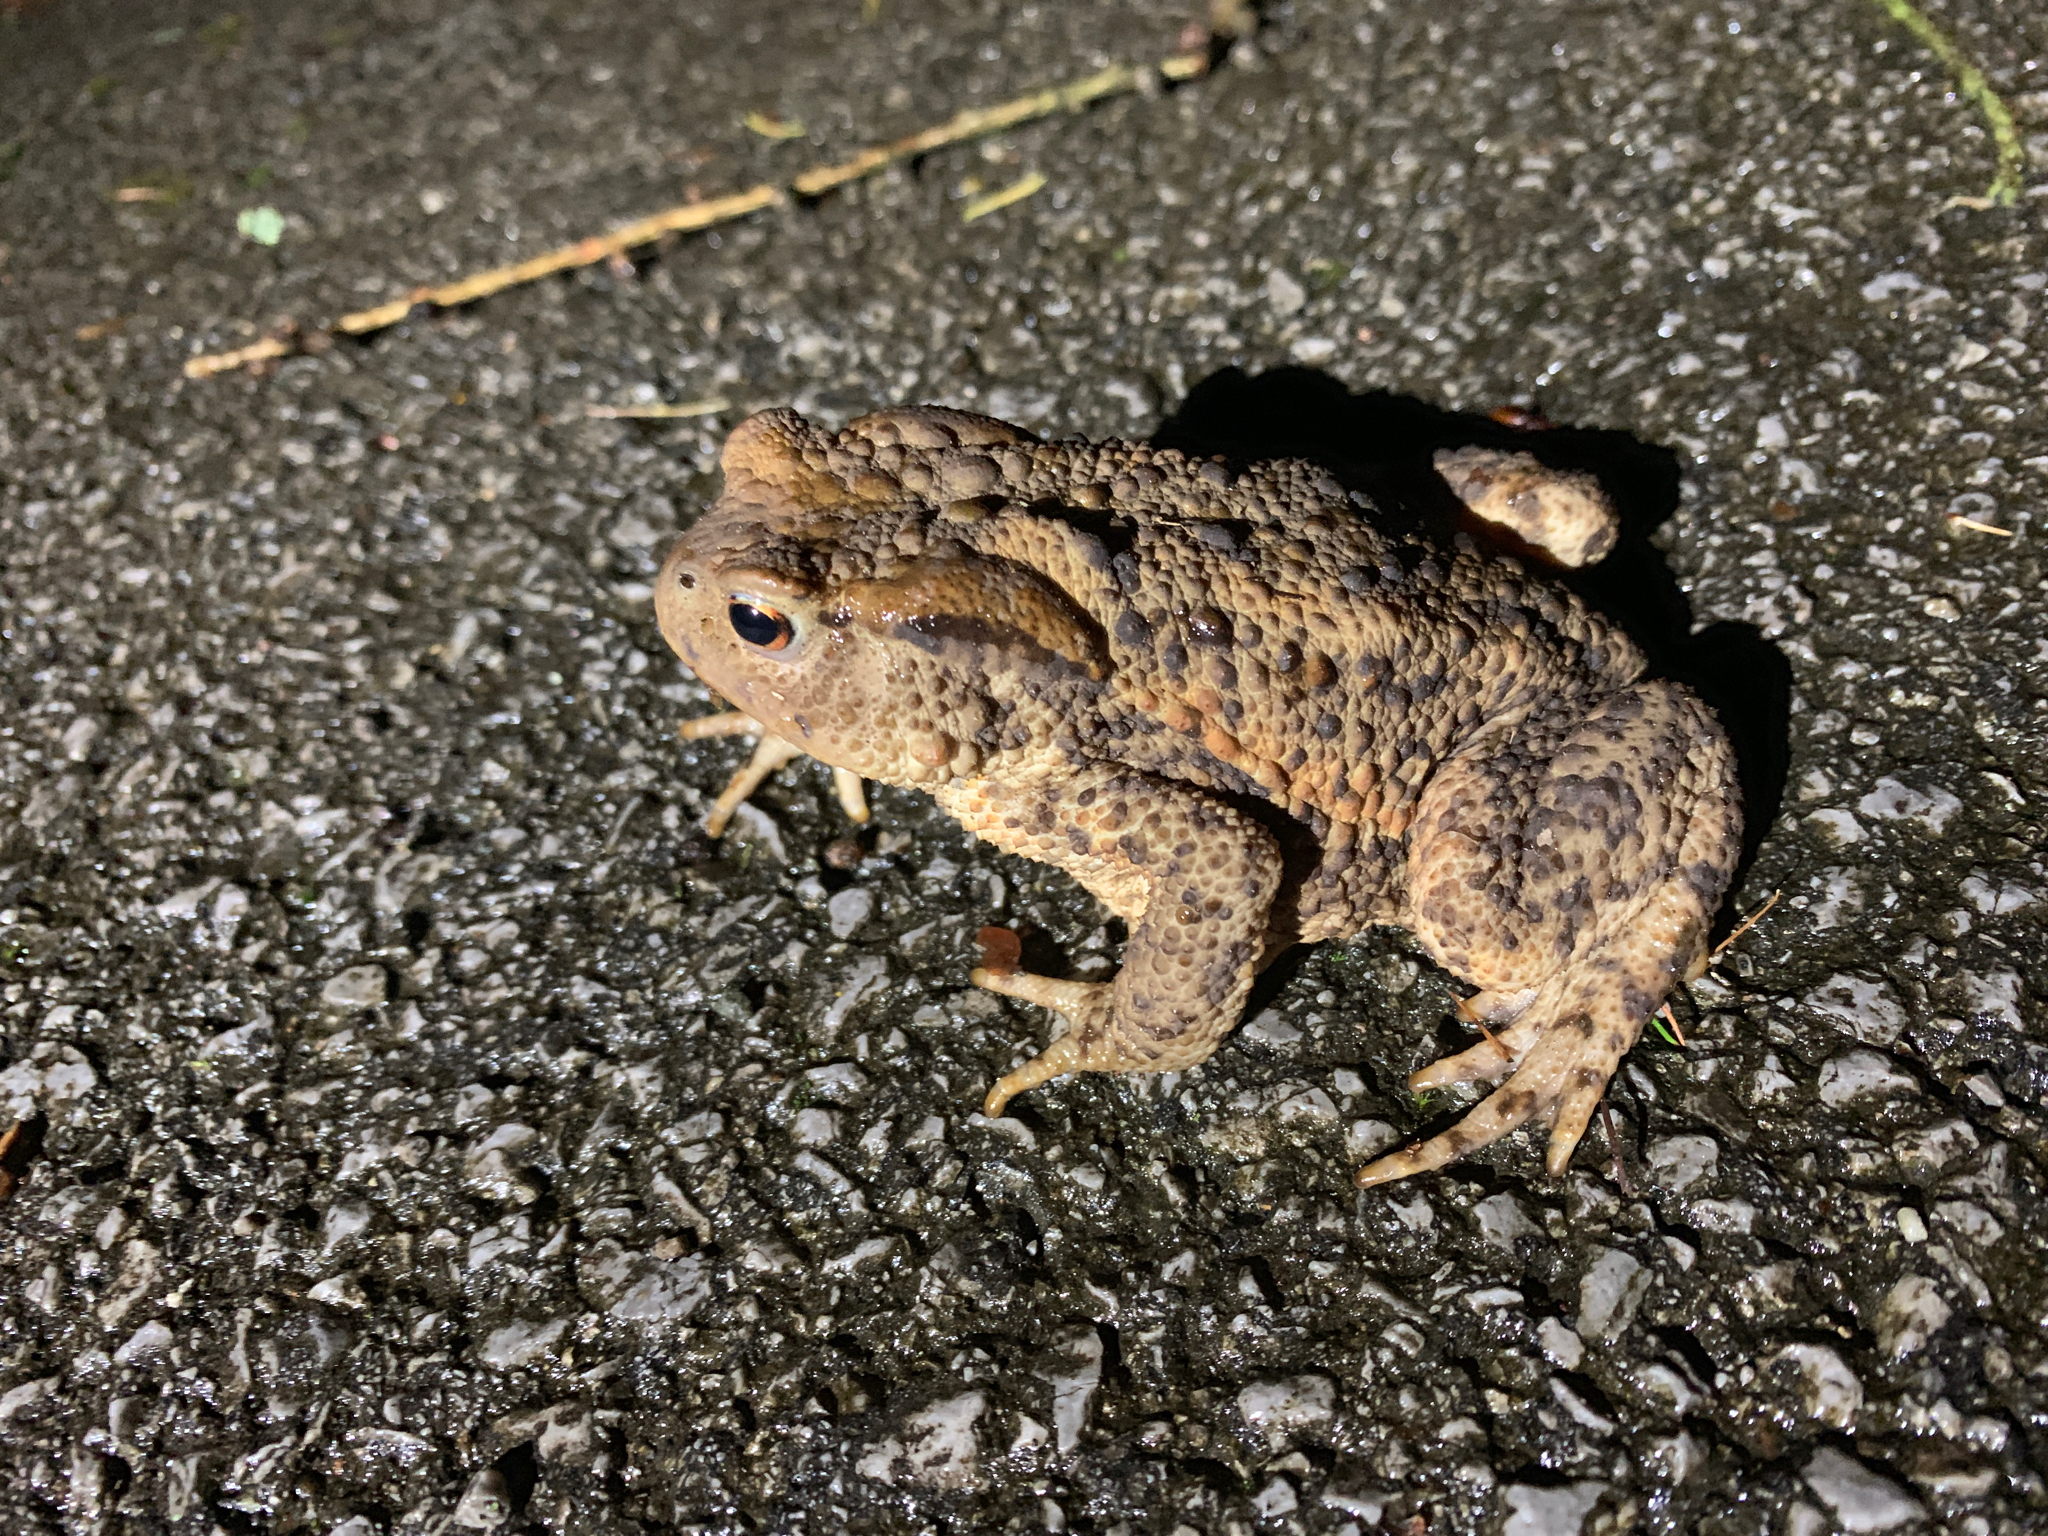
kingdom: Animalia
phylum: Chordata
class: Amphibia
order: Anura
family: Bufonidae
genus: Bufo
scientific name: Bufo bufo
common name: Common toad
